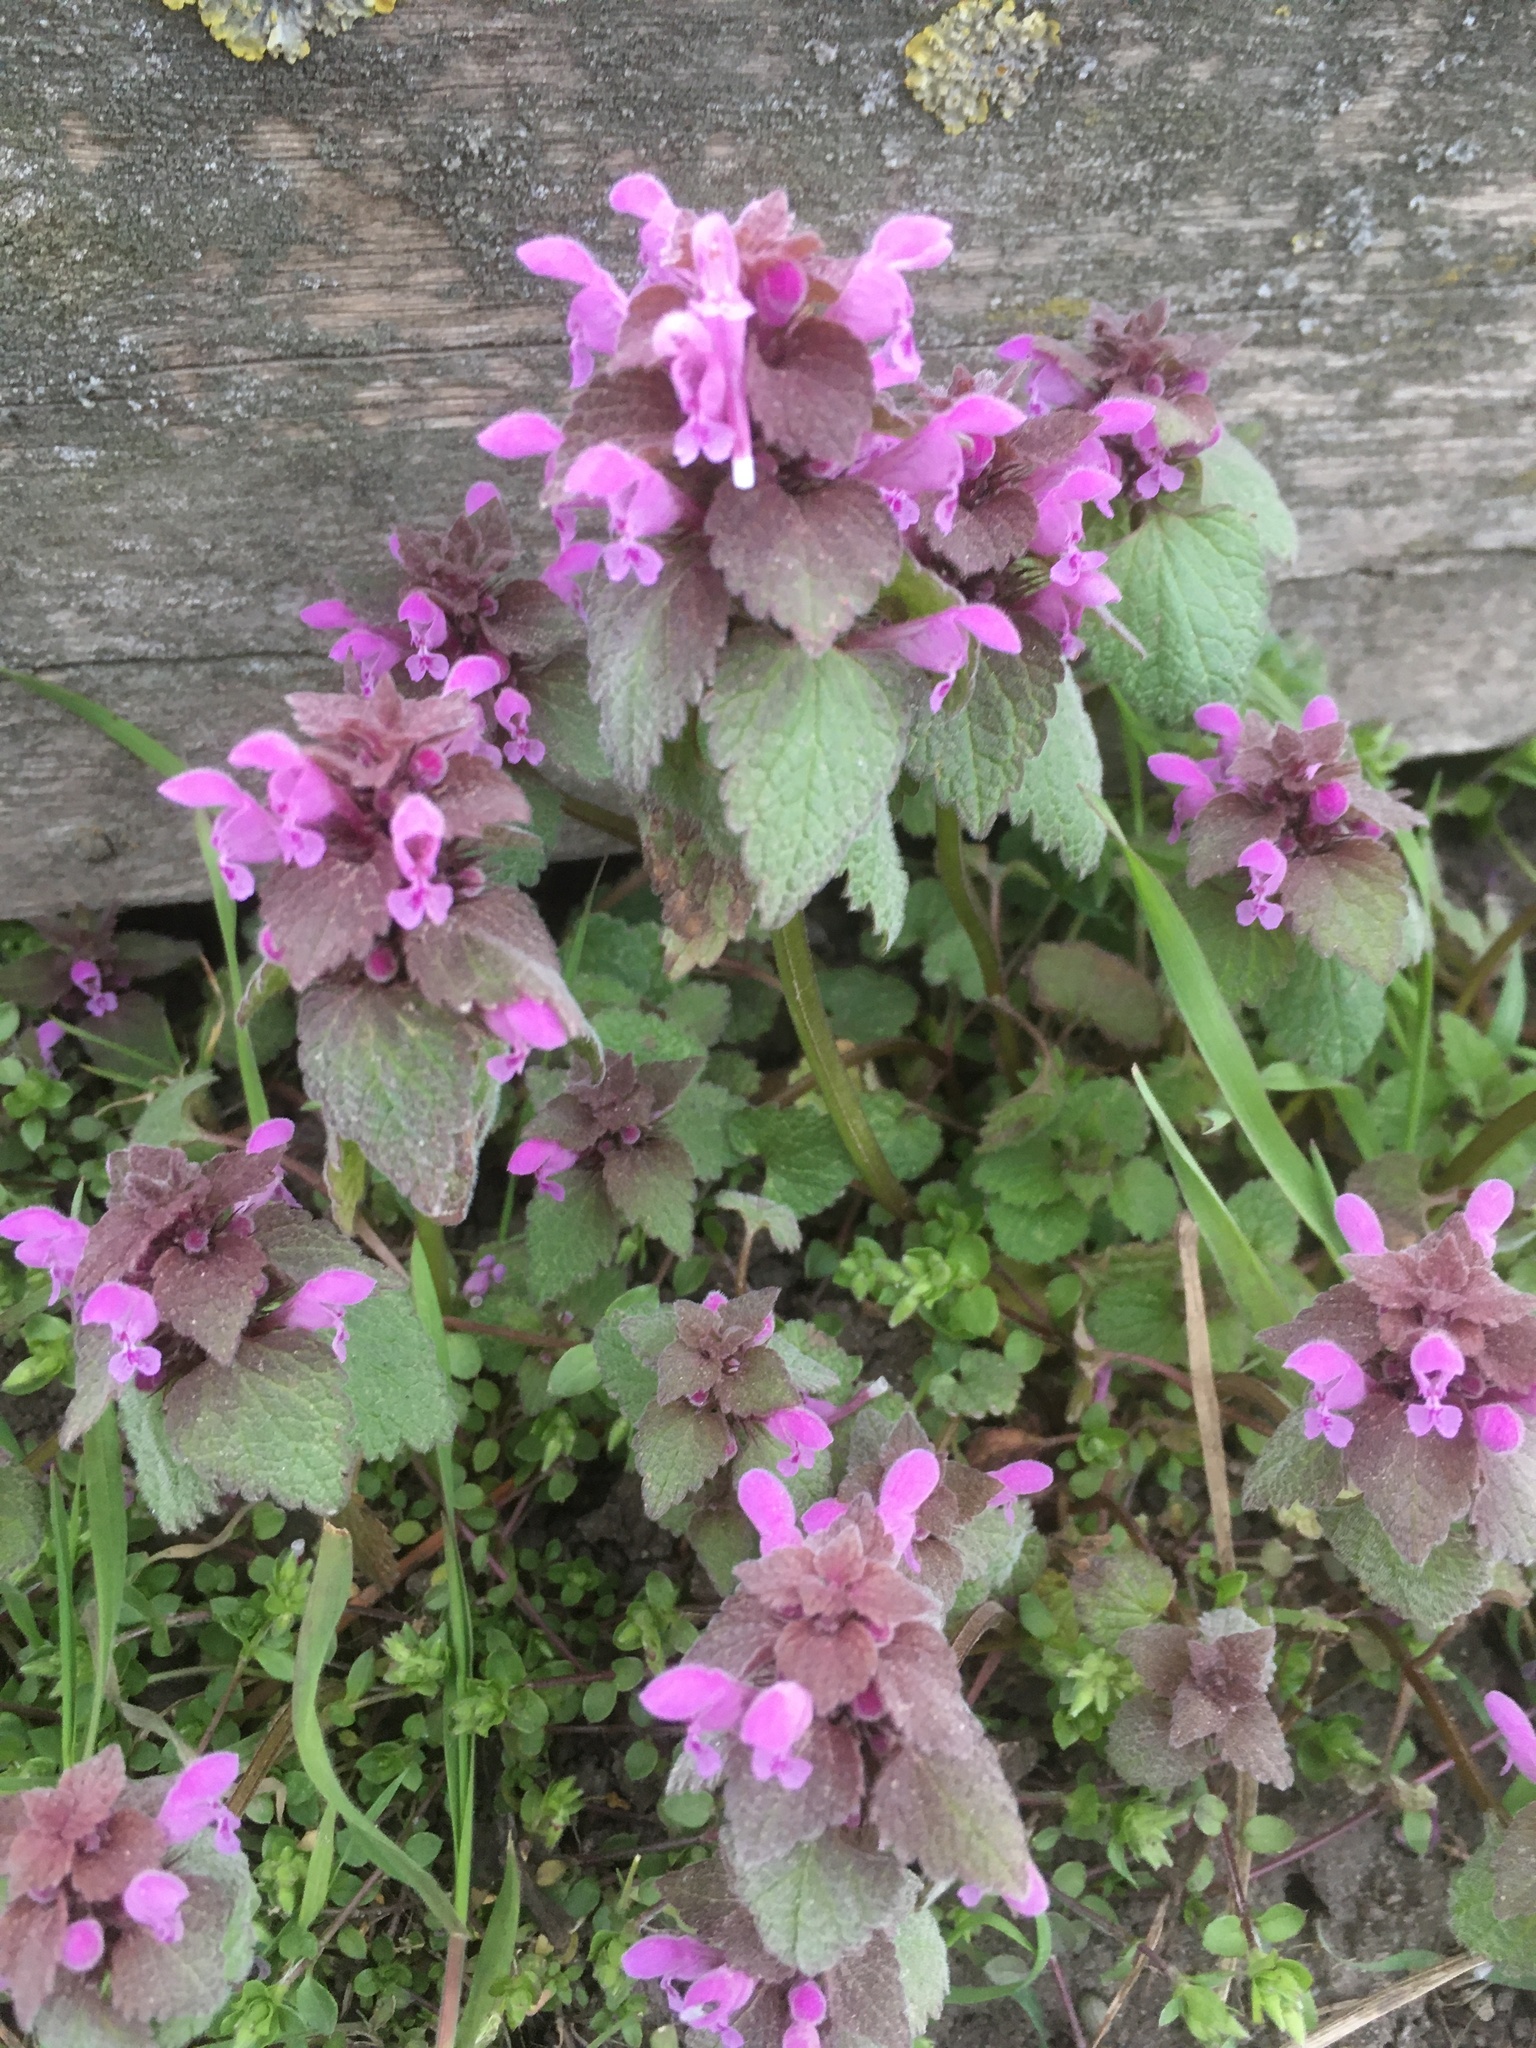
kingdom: Plantae
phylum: Tracheophyta
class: Magnoliopsida
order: Lamiales
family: Lamiaceae
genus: Lamium
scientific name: Lamium purpureum
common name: Red dead-nettle
